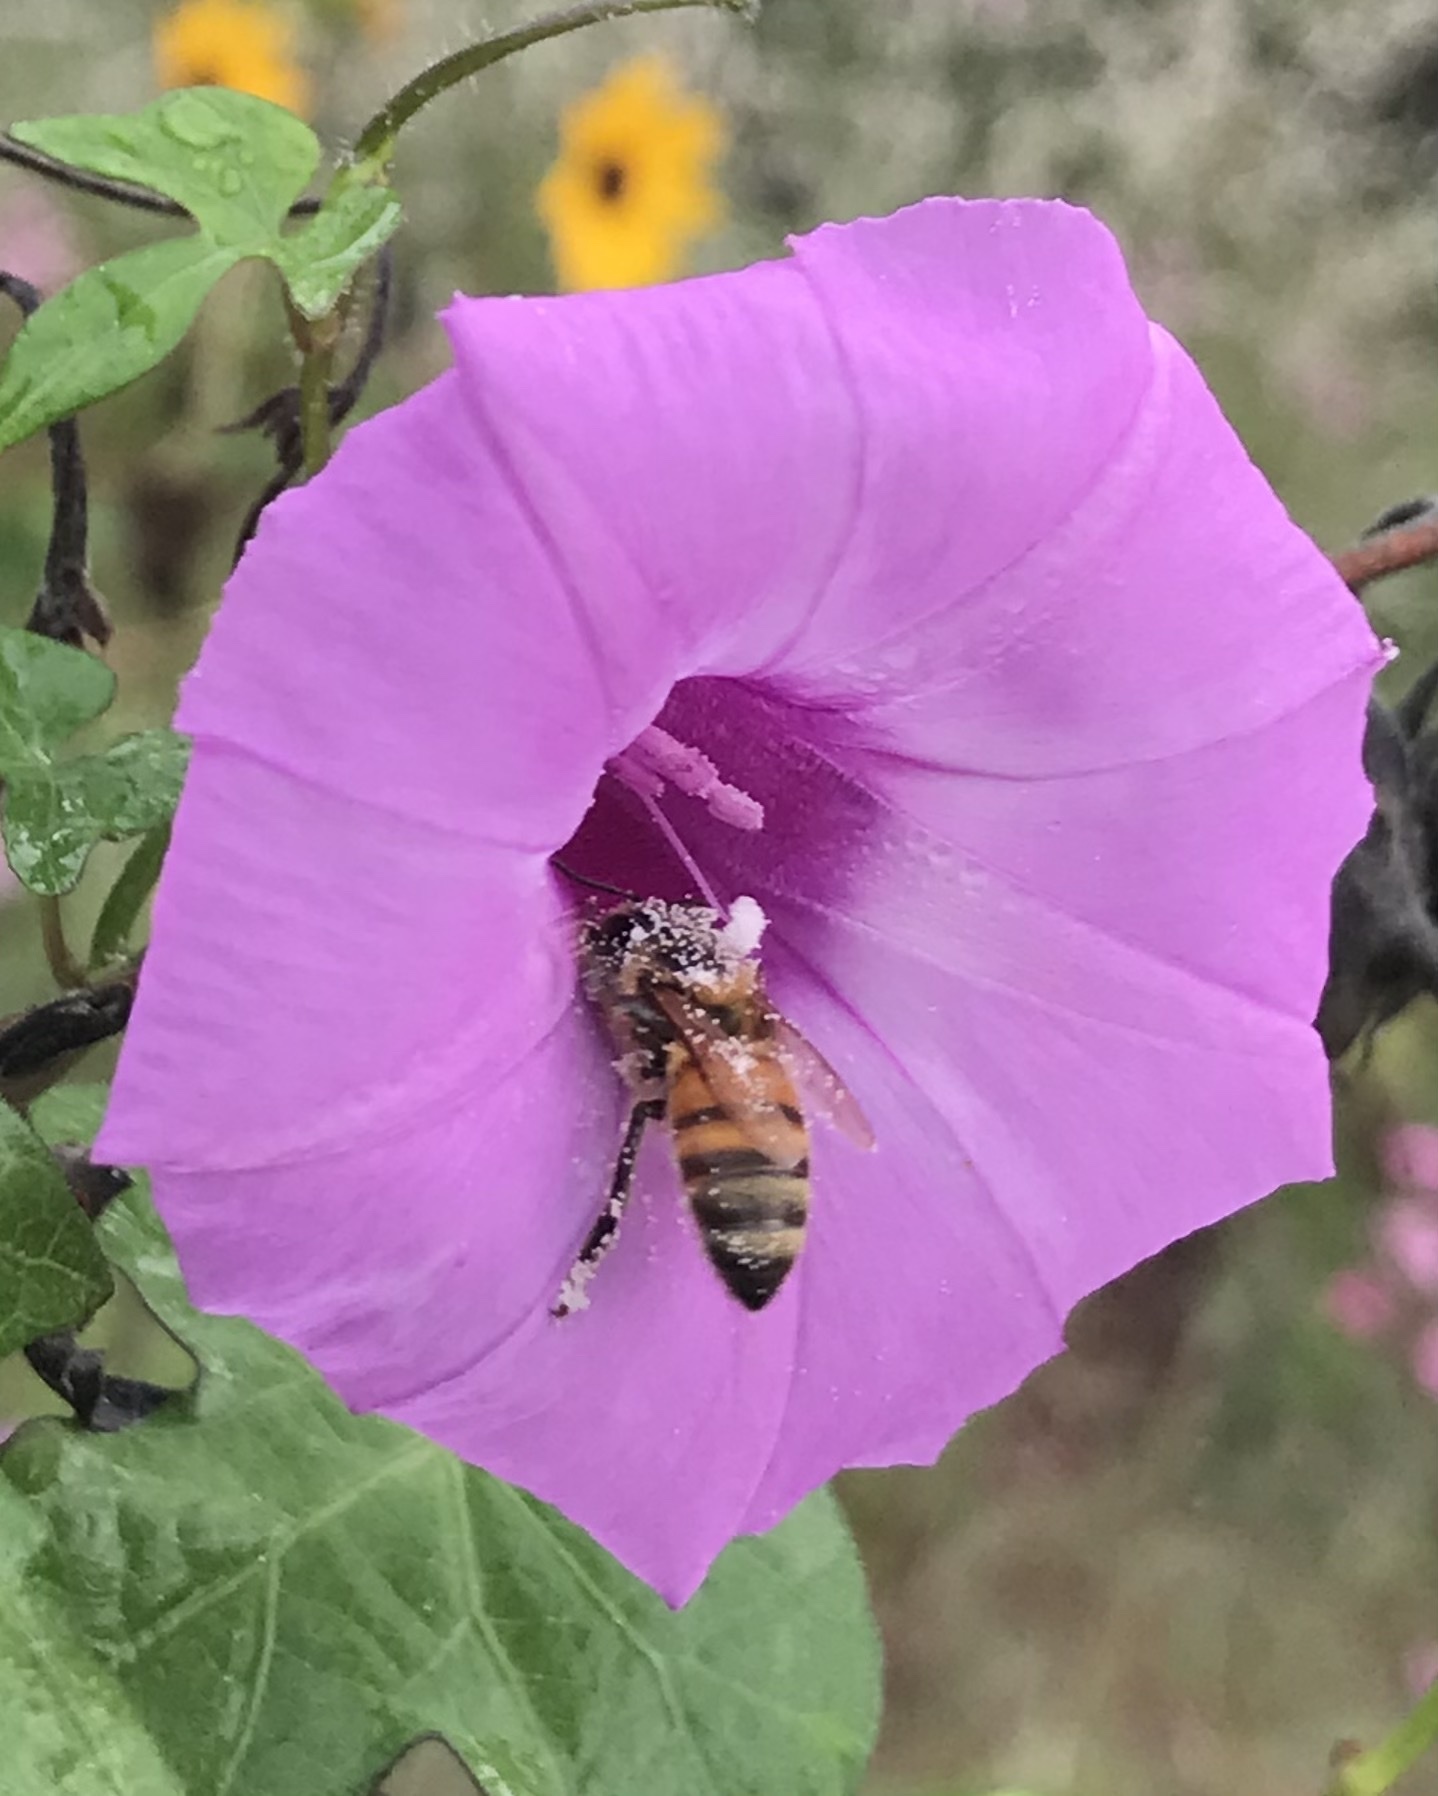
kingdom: Animalia
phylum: Arthropoda
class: Insecta
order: Hymenoptera
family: Apidae
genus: Apis
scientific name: Apis mellifera
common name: Honey bee
